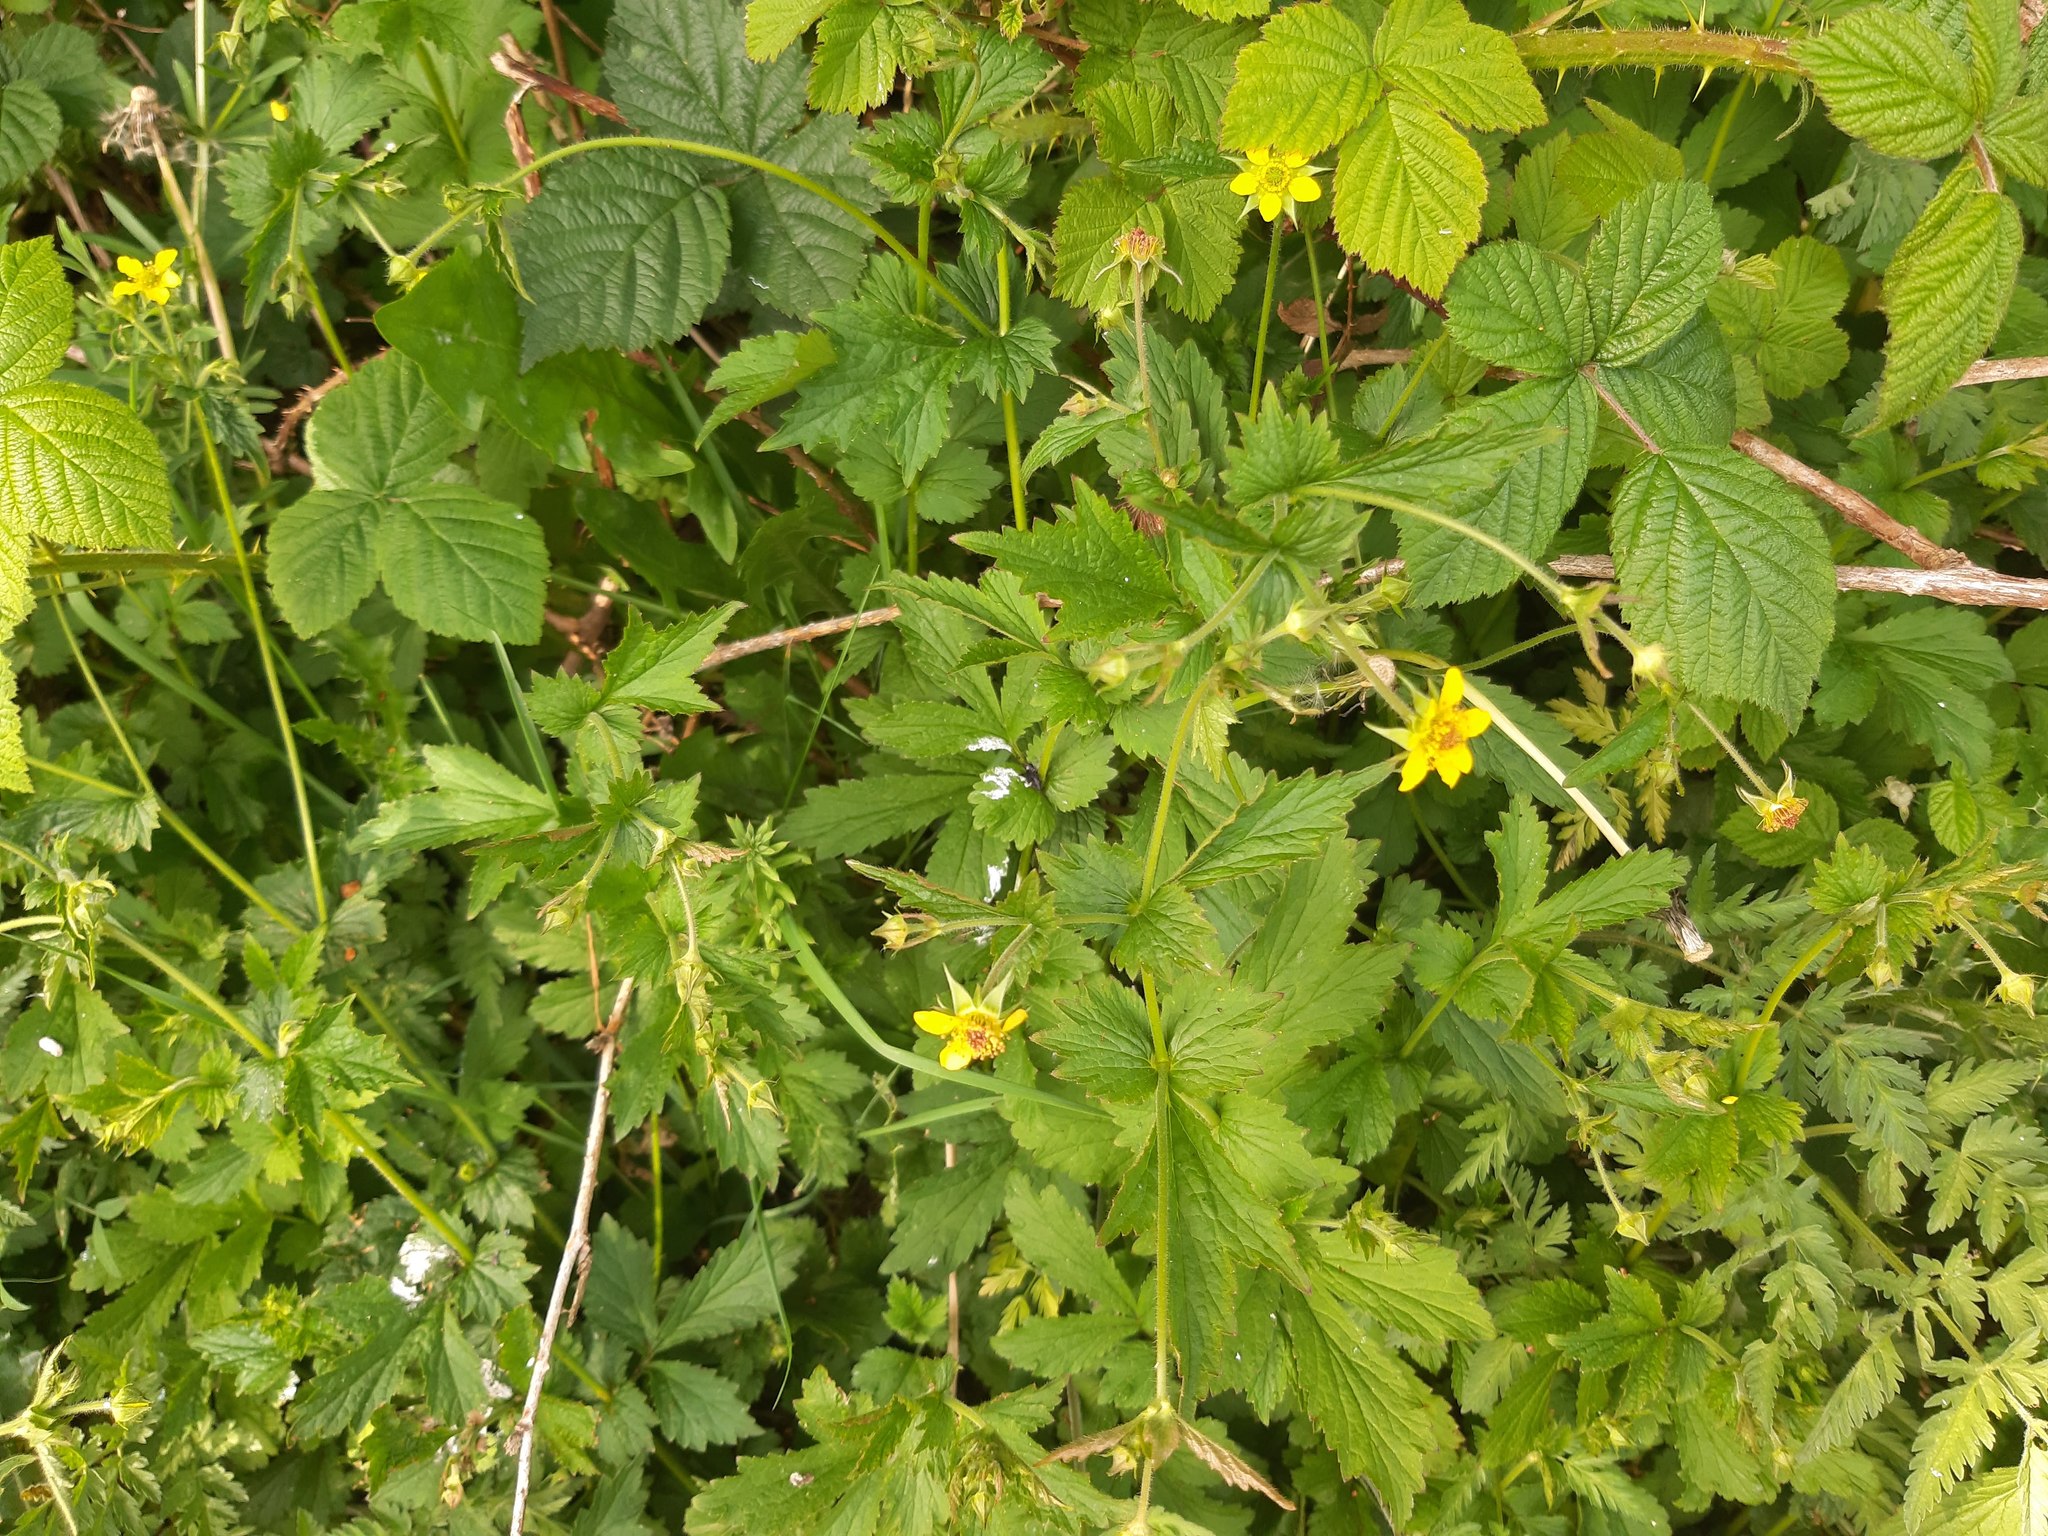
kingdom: Plantae
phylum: Tracheophyta
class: Magnoliopsida
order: Rosales
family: Rosaceae
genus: Geum
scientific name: Geum urbanum
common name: Wood avens
